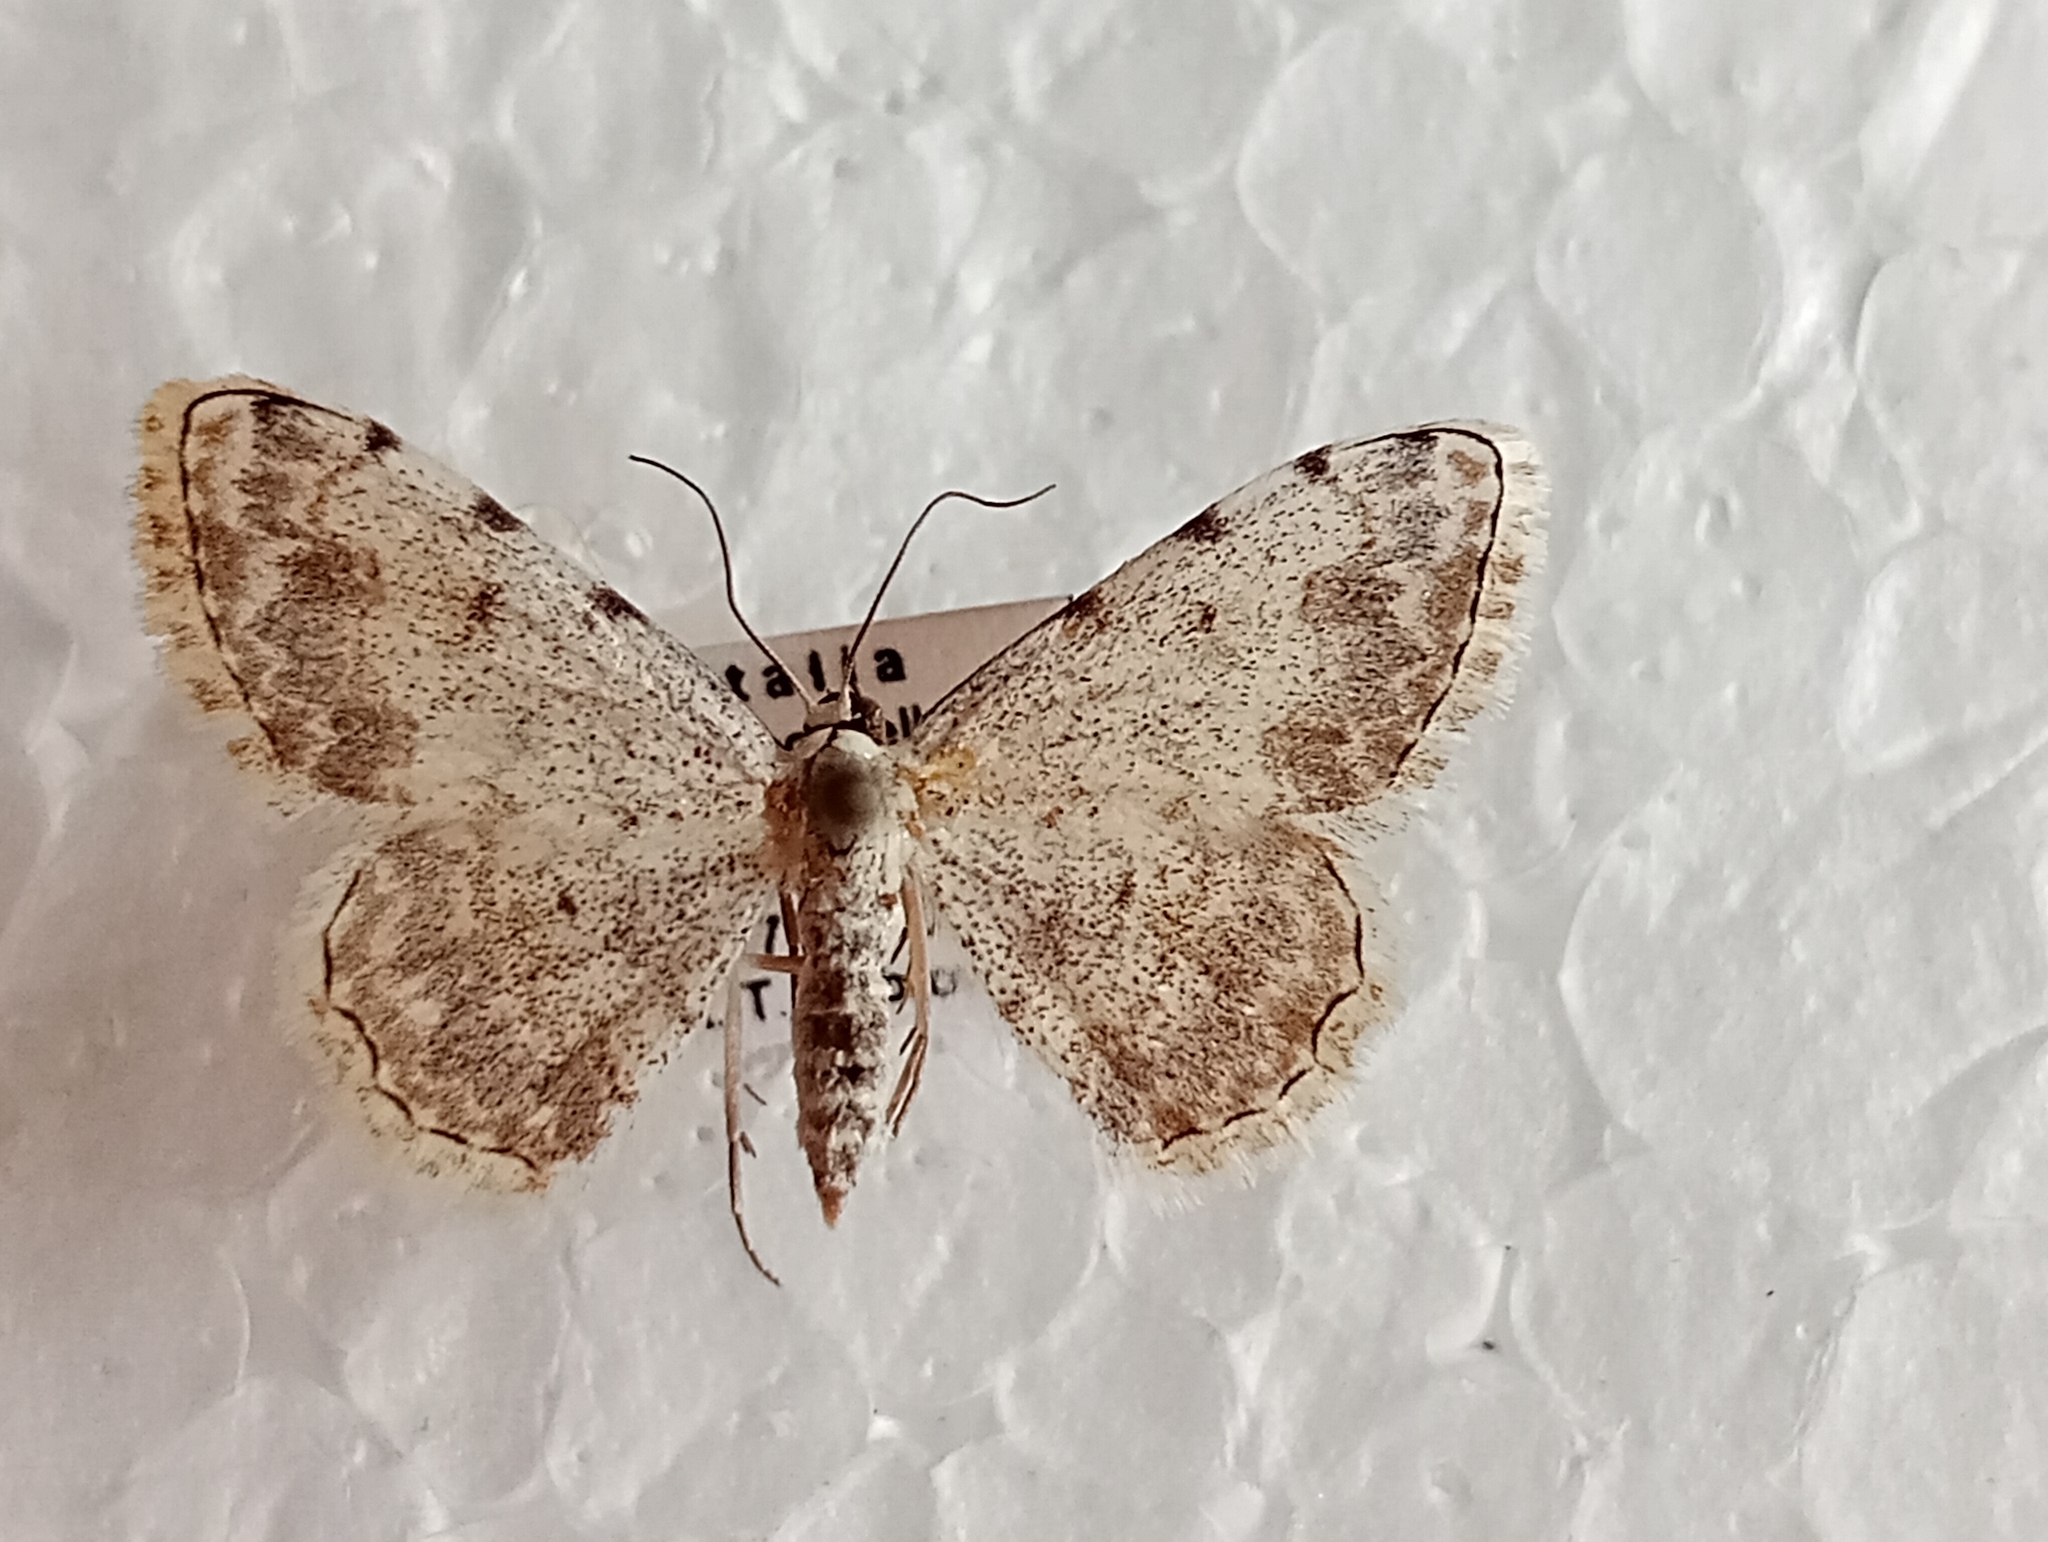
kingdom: Animalia
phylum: Arthropoda
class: Insecta
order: Lepidoptera
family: Geometridae
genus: Scopula
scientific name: Scopula submutata
